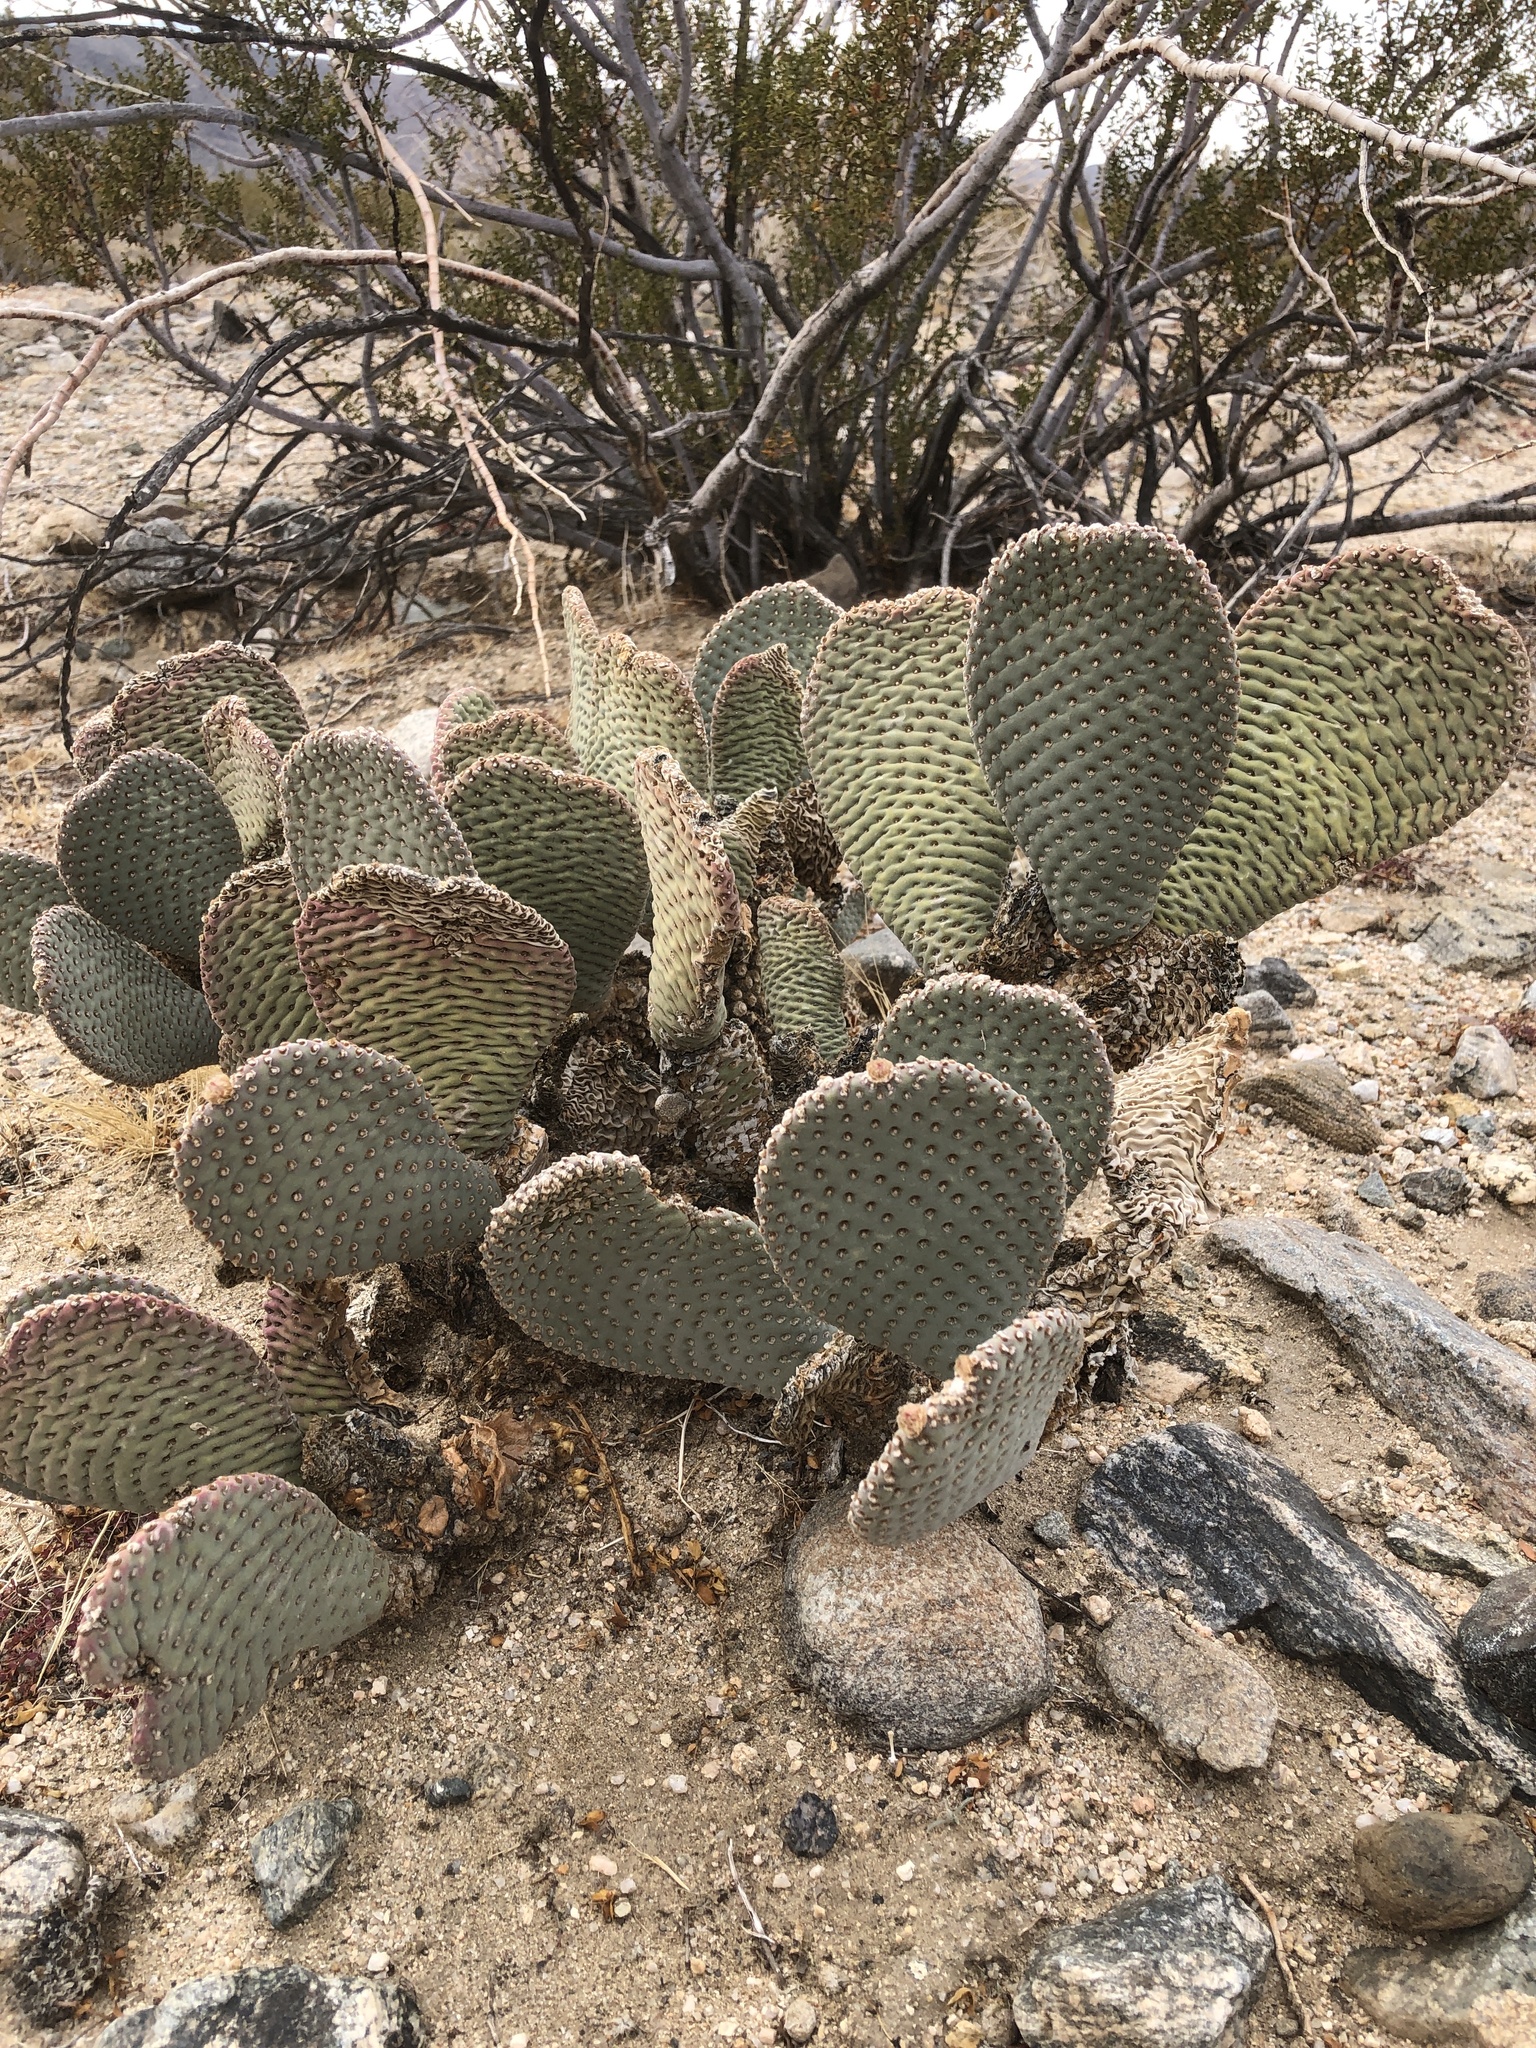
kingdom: Plantae
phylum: Tracheophyta
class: Magnoliopsida
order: Caryophyllales
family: Cactaceae
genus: Opuntia
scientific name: Opuntia basilaris
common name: Beavertail prickly-pear
